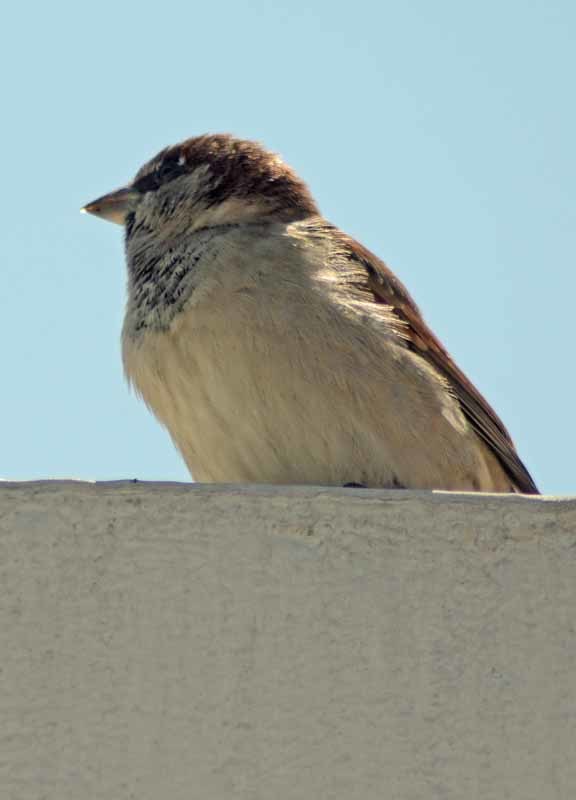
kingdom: Animalia
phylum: Chordata
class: Aves
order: Passeriformes
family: Passeridae
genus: Passer
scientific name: Passer domesticus
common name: House sparrow
